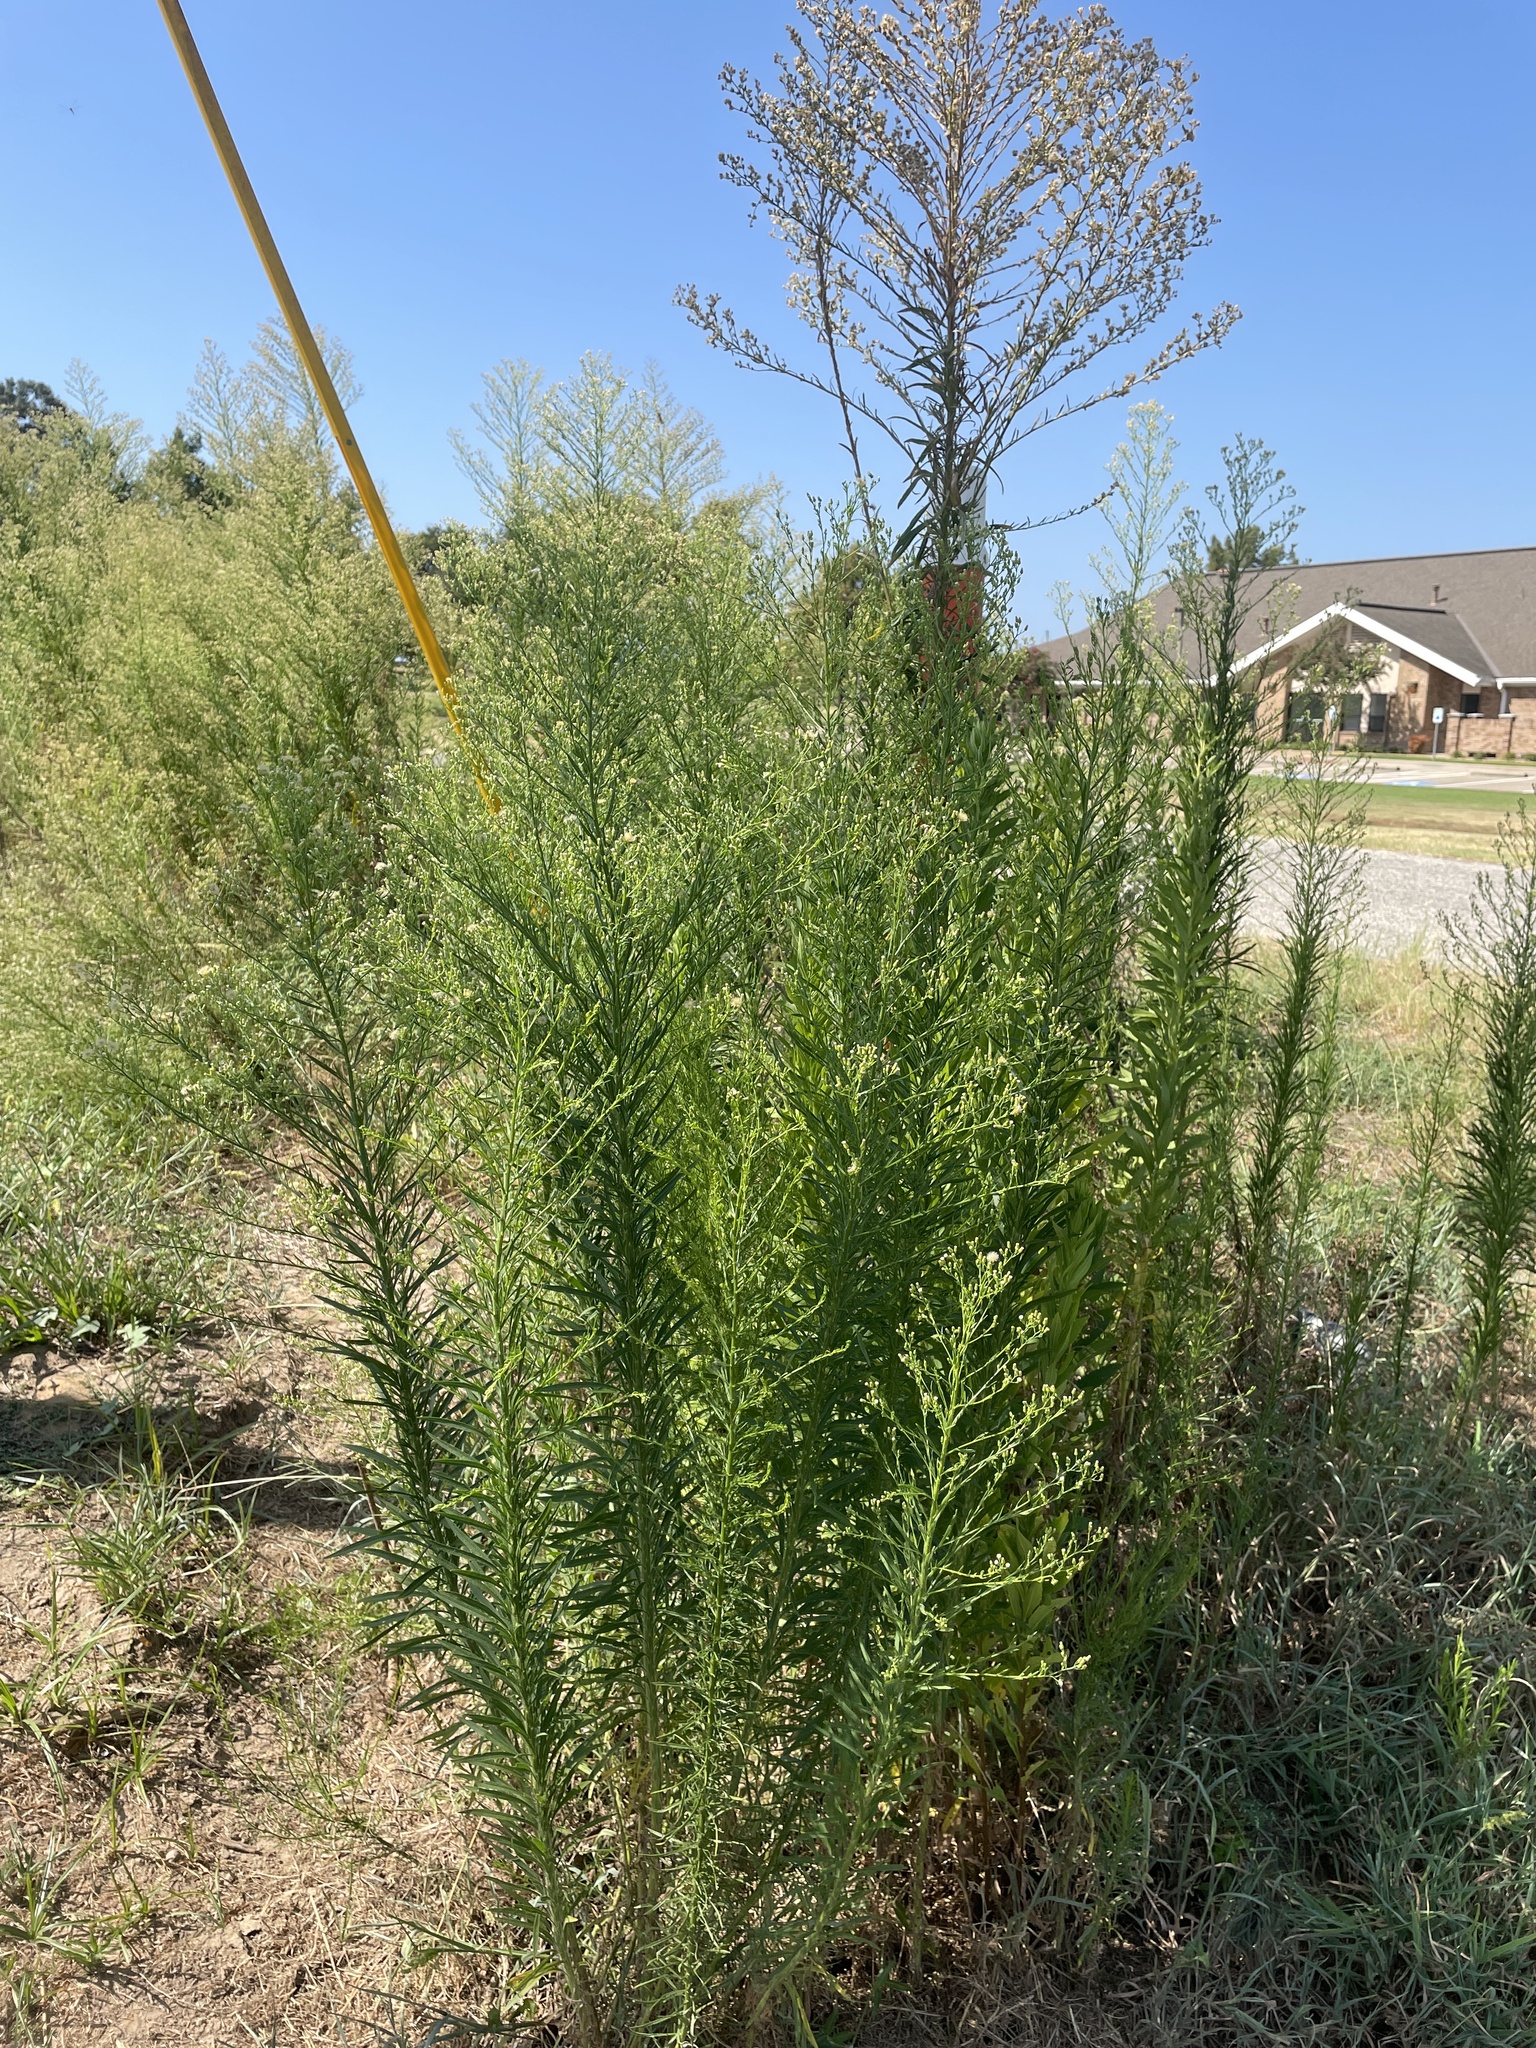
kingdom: Plantae
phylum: Tracheophyta
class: Magnoliopsida
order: Asterales
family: Asteraceae
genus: Erigeron
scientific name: Erigeron canadensis
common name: Canadian fleabane
